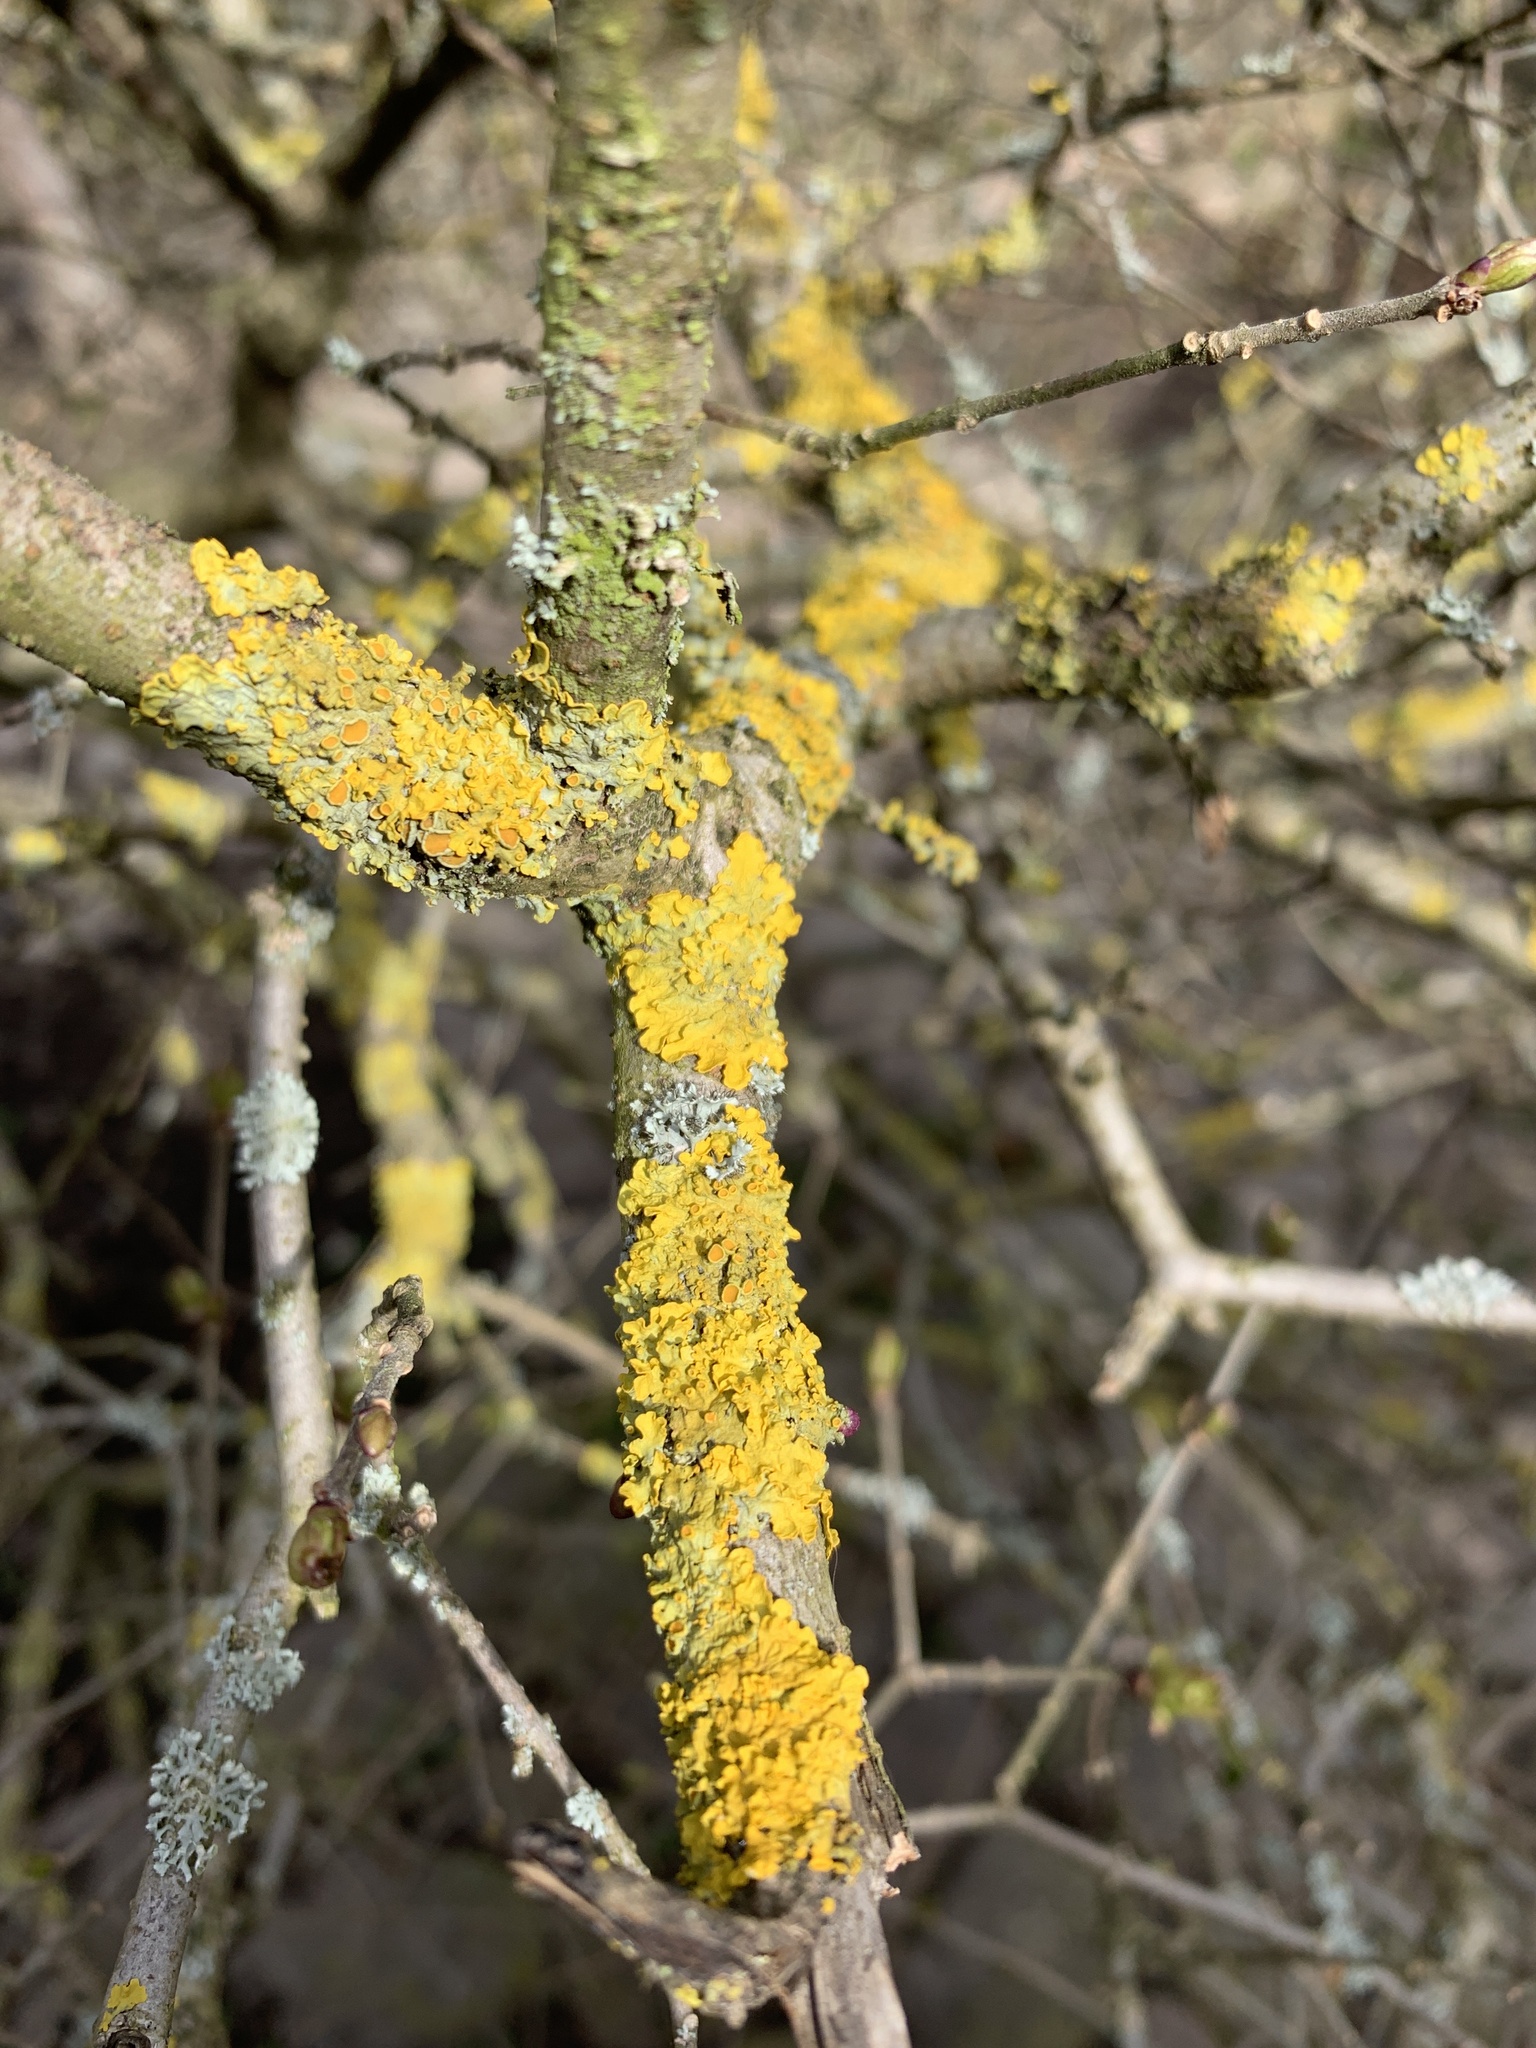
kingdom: Fungi
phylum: Ascomycota
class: Lecanoromycetes
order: Teloschistales
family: Teloschistaceae
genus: Xanthoria
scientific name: Xanthoria parietina
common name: Common orange lichen
